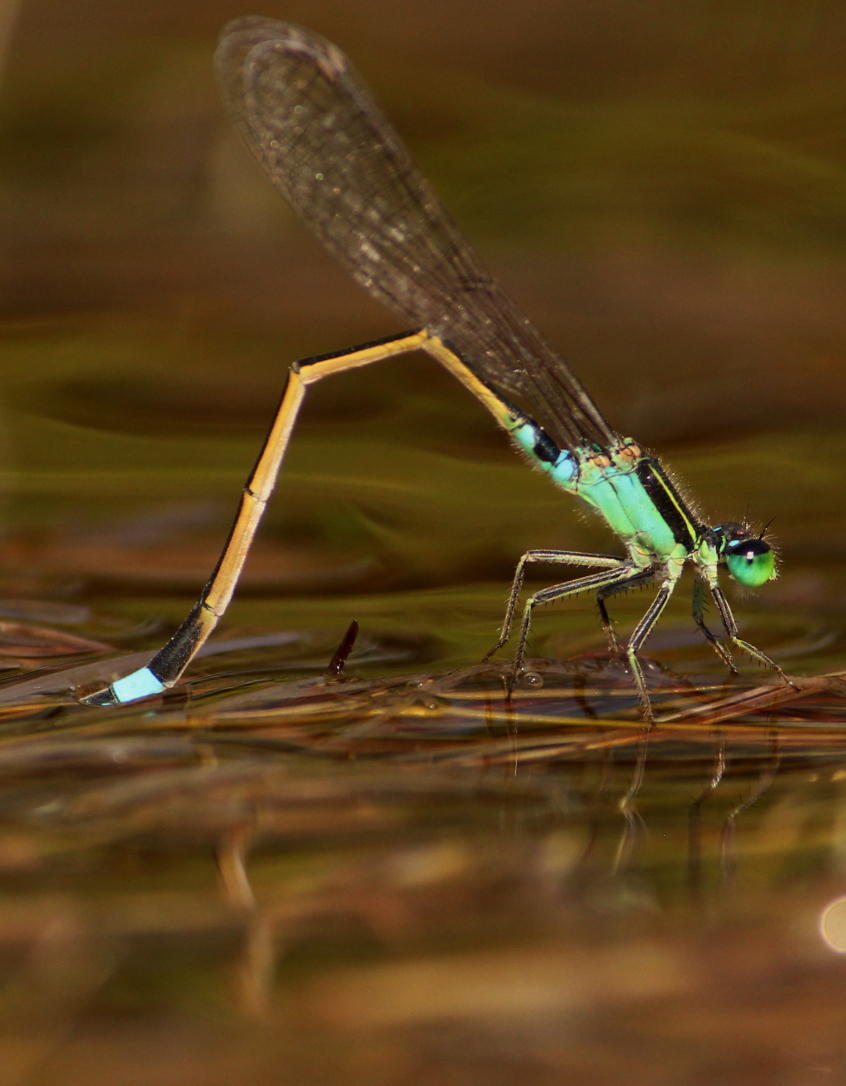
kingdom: Animalia
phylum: Arthropoda
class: Insecta
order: Odonata
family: Coenagrionidae
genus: Ischnura
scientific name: Ischnura senegalensis
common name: Tropical bluetail
